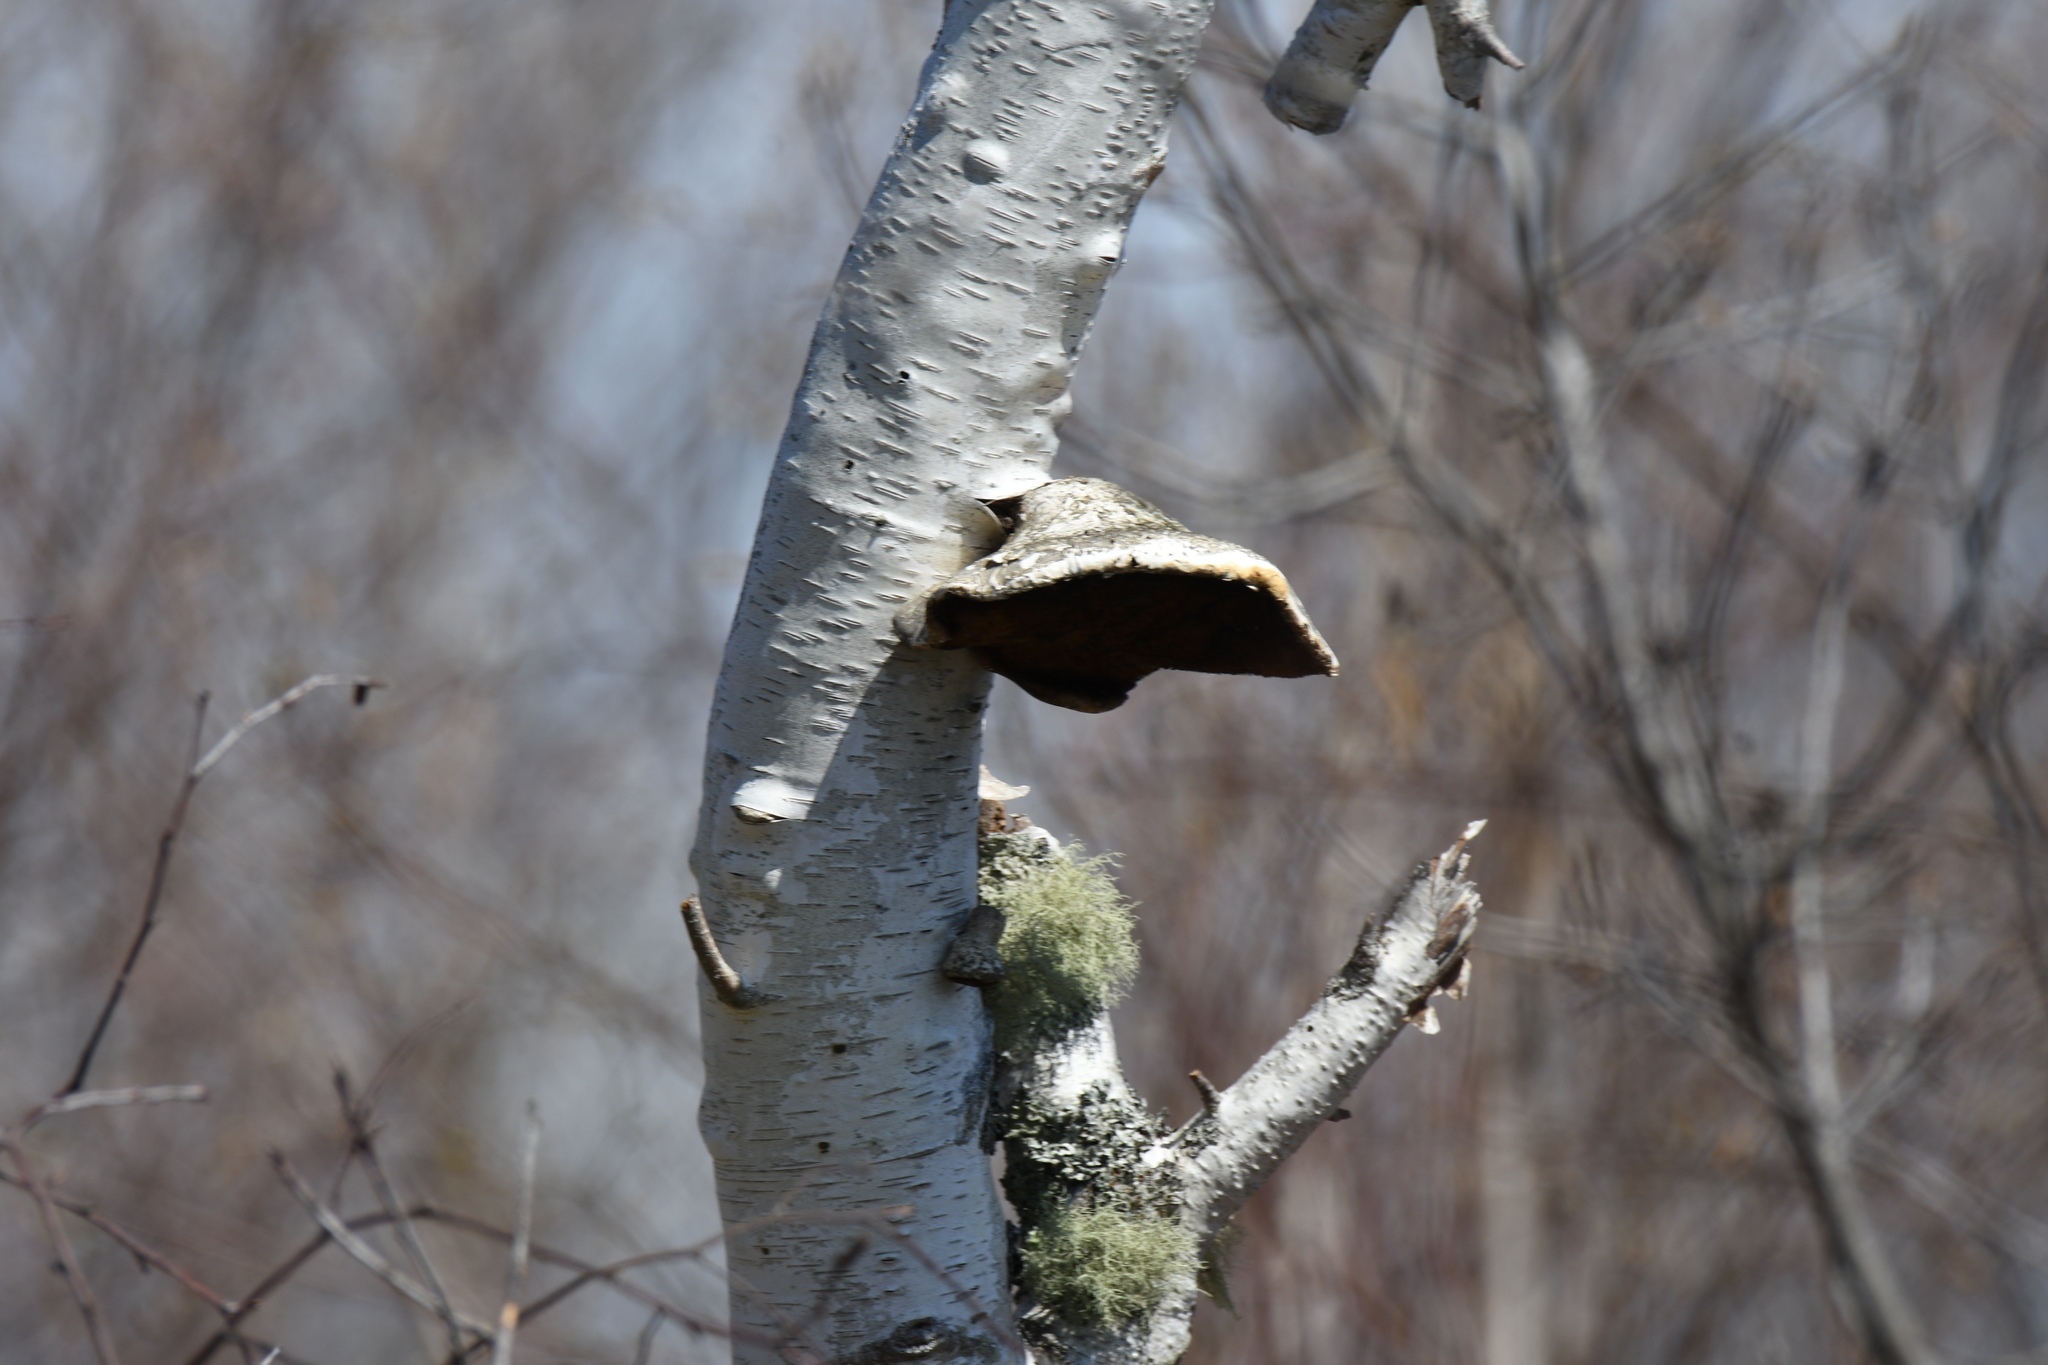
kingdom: Fungi
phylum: Basidiomycota
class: Agaricomycetes
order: Polyporales
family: Fomitopsidaceae
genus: Fomitopsis
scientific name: Fomitopsis betulina
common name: Birch polypore
